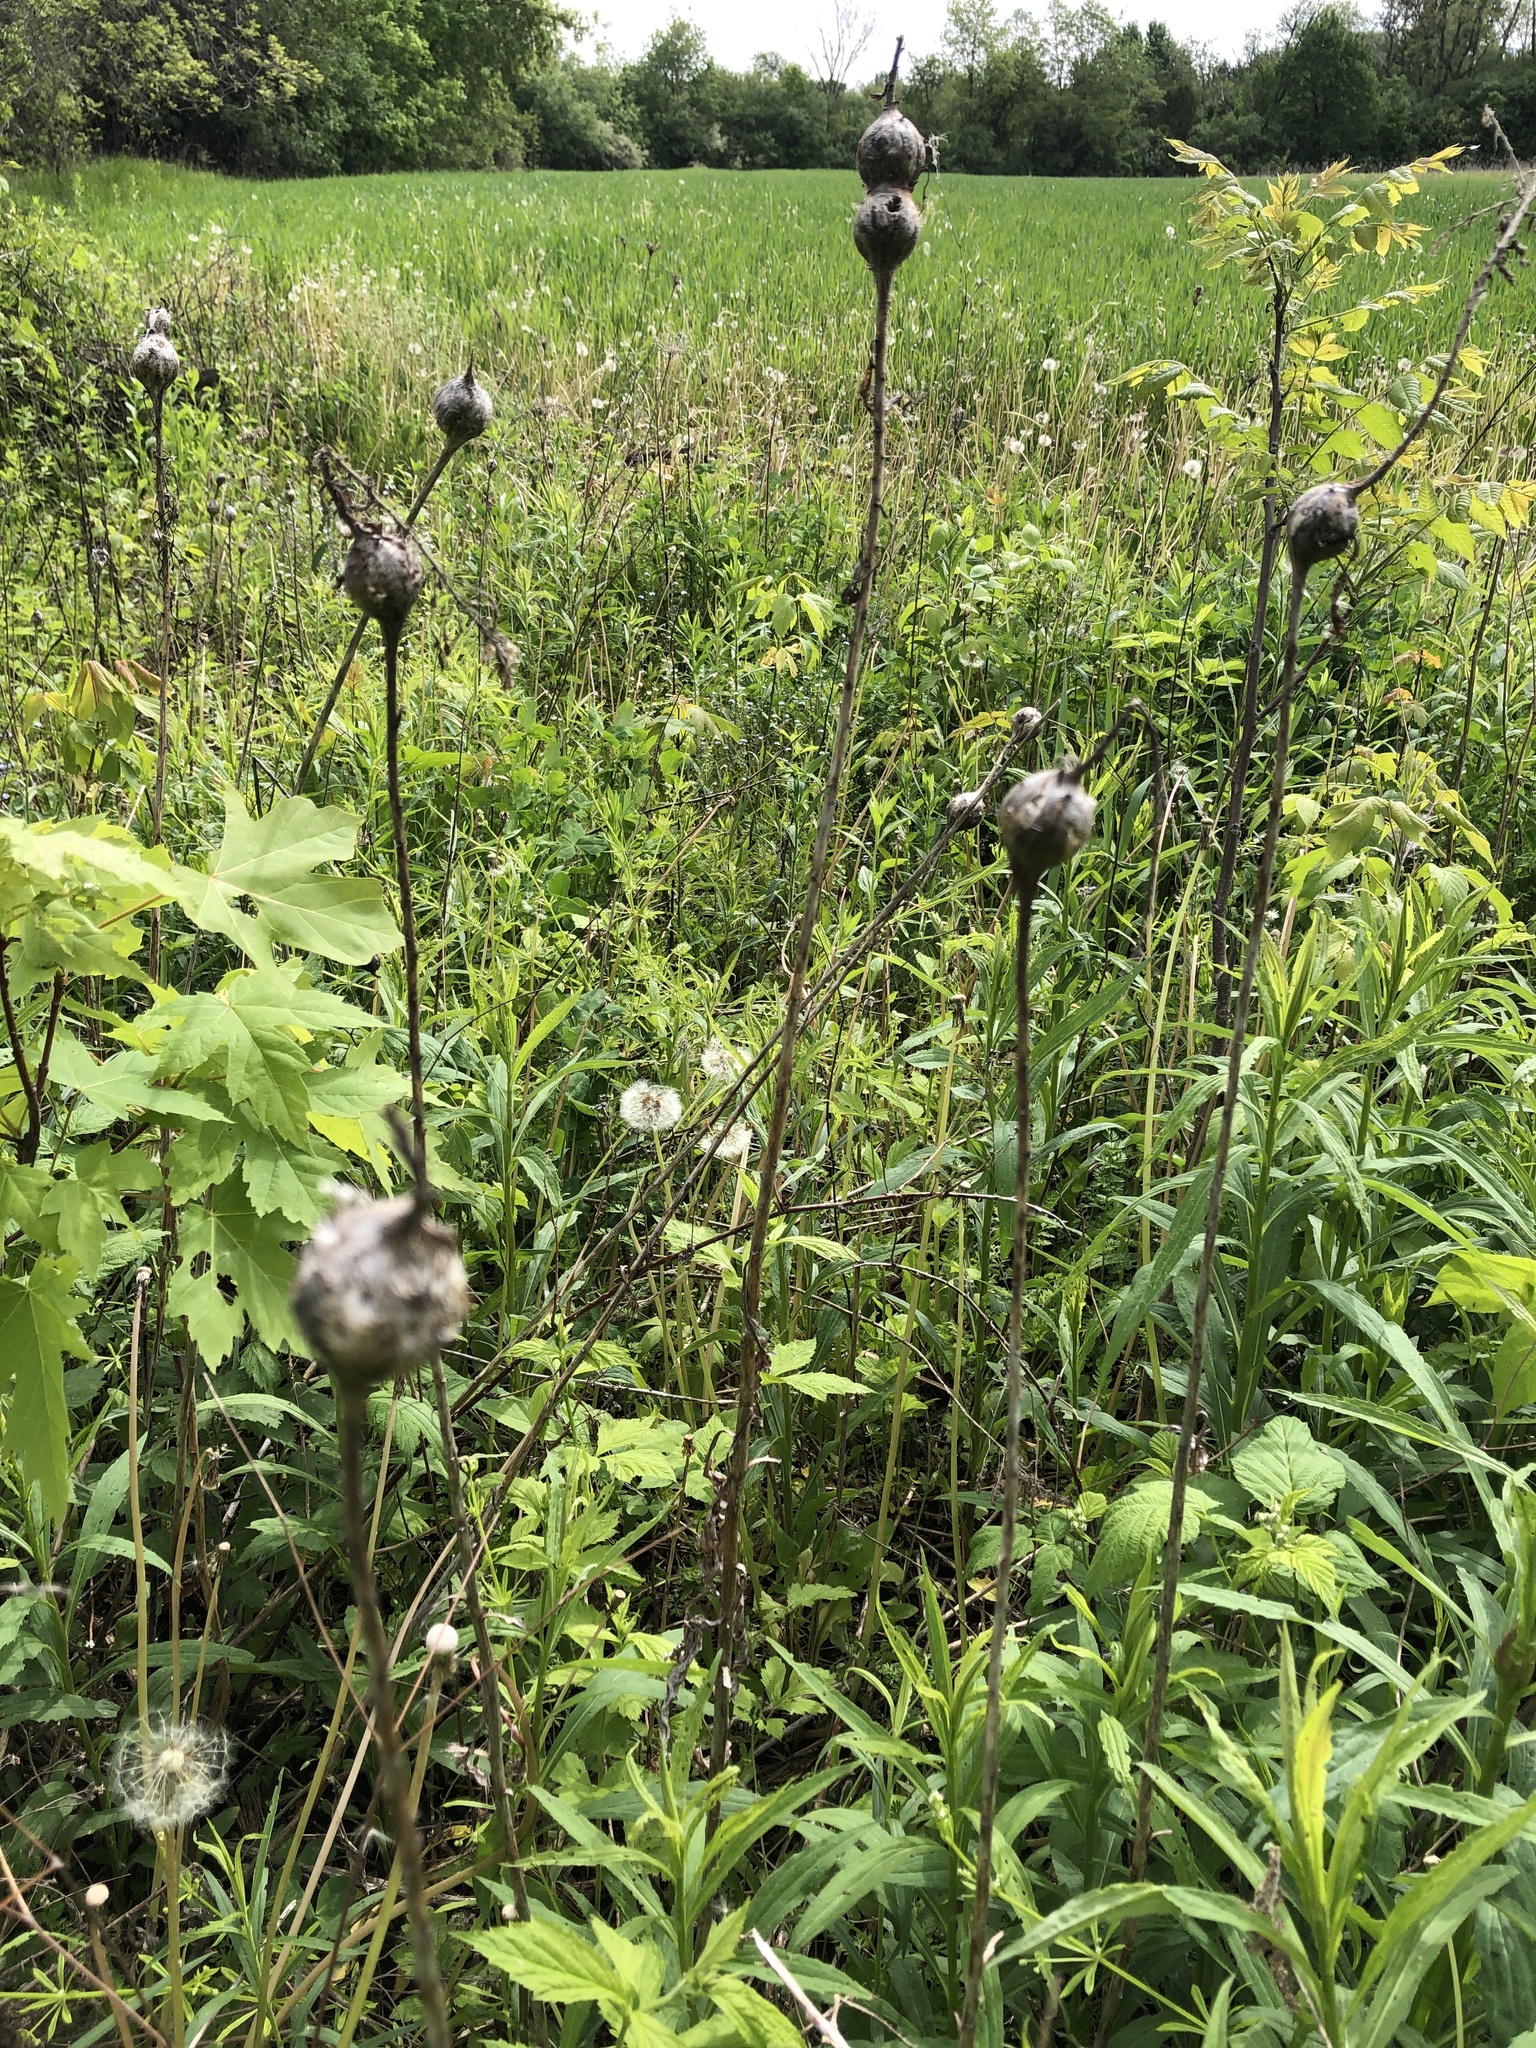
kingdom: Animalia
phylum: Arthropoda
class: Insecta
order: Diptera
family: Tephritidae
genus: Eurosta
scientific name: Eurosta solidaginis
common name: Goldenrod gall fly
